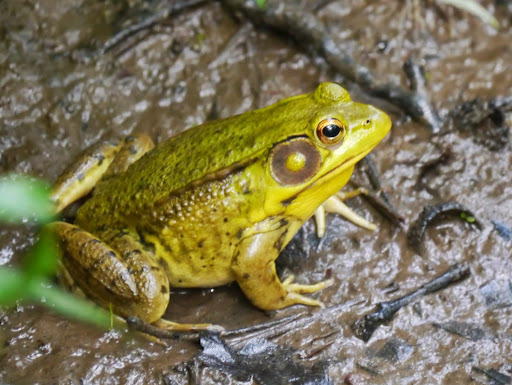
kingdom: Animalia
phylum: Chordata
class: Amphibia
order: Anura
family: Ranidae
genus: Lithobates
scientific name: Lithobates clamitans
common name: Green frog
